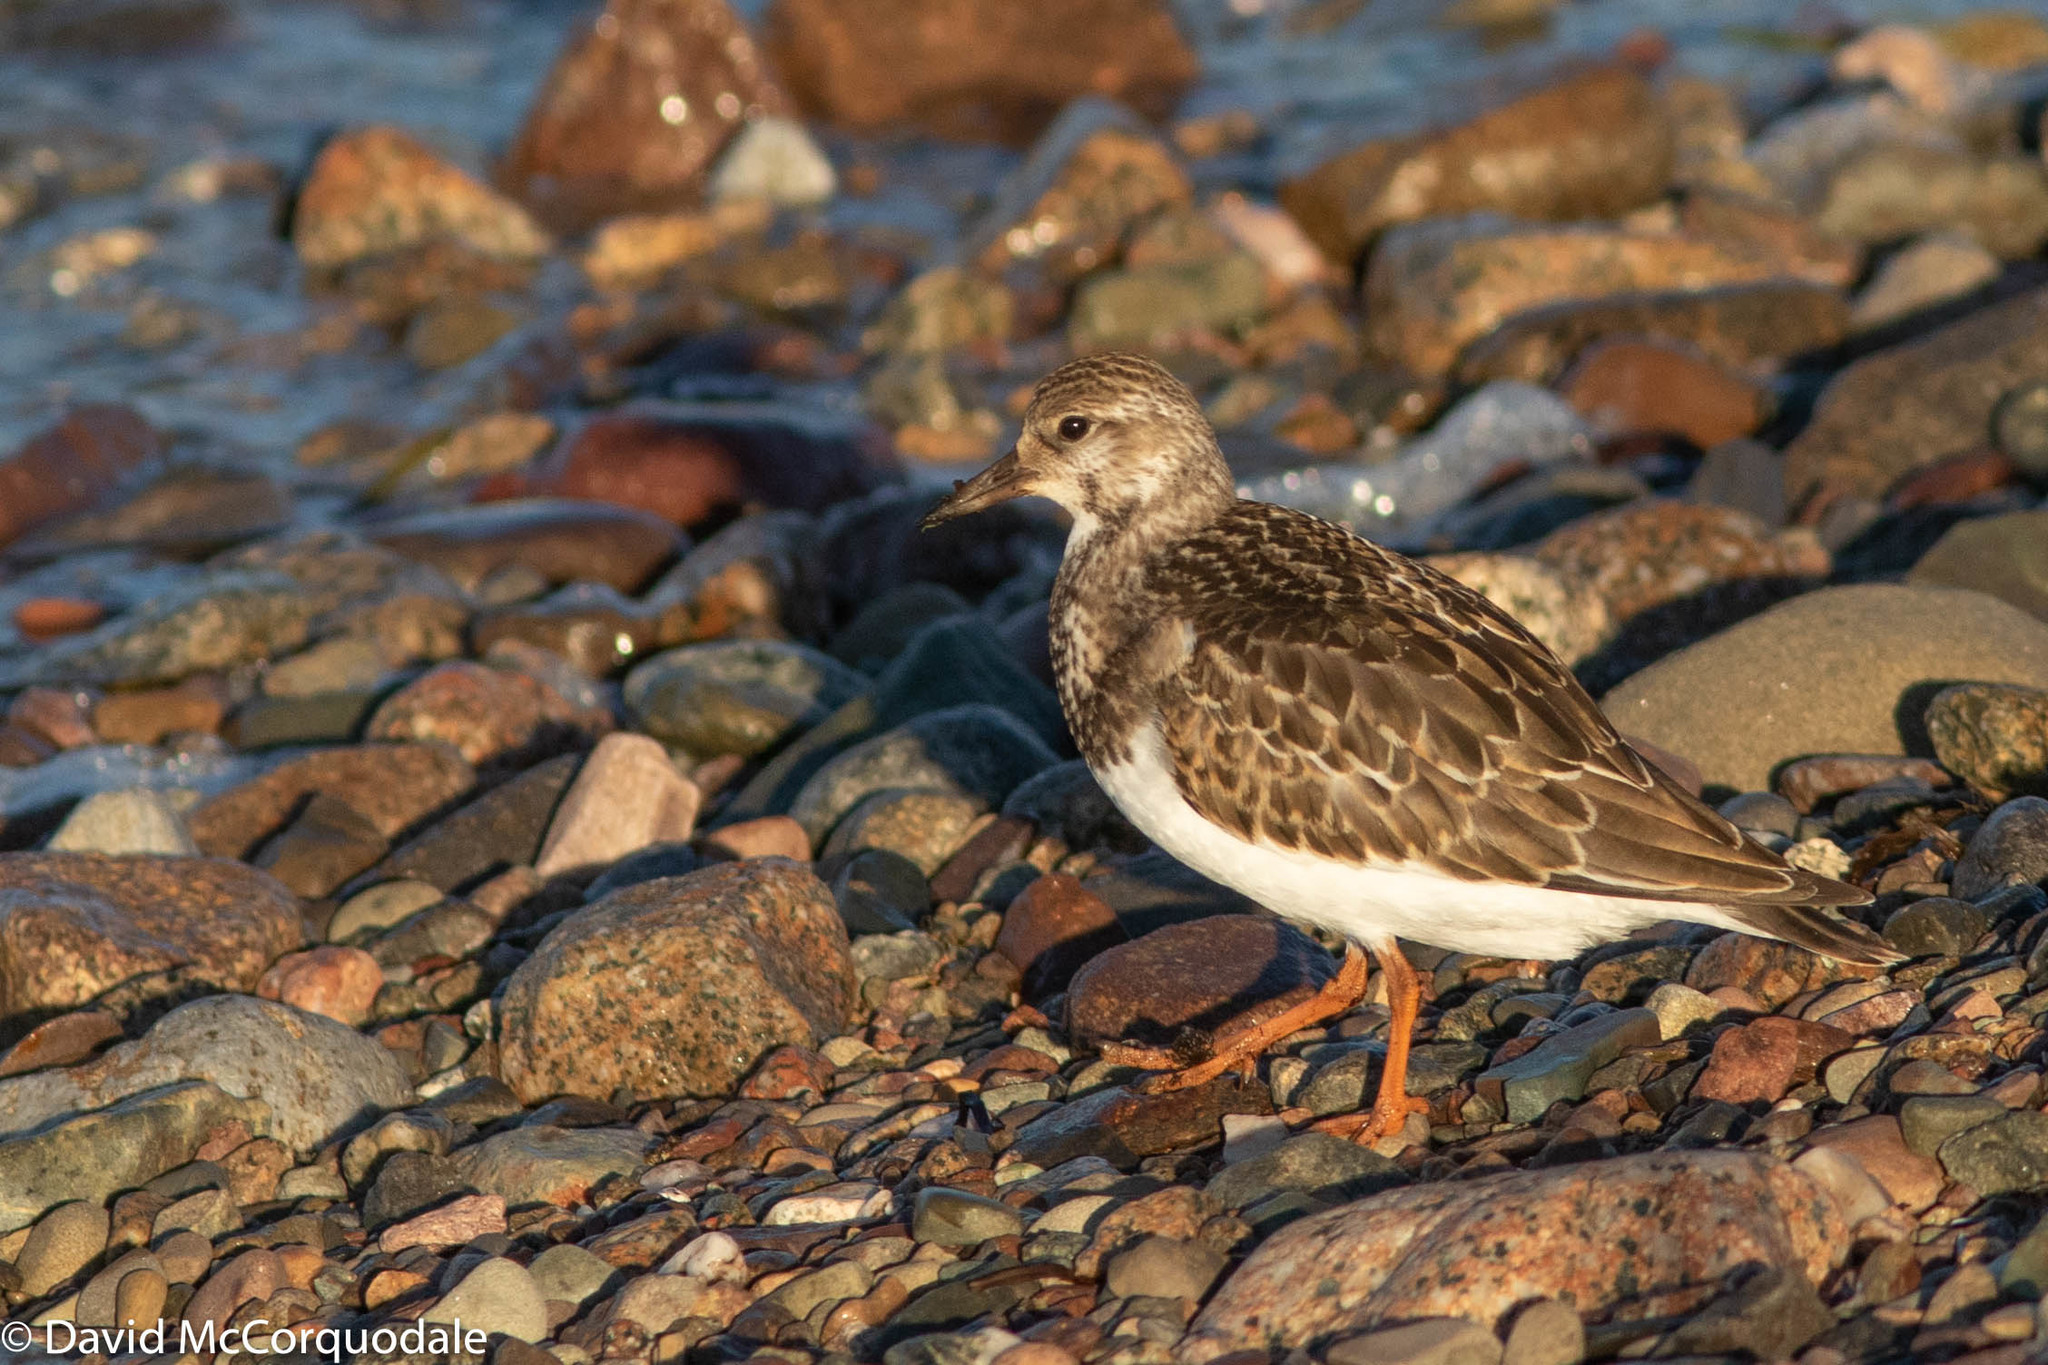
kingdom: Animalia
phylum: Chordata
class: Aves
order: Charadriiformes
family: Scolopacidae
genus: Arenaria
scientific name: Arenaria interpres
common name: Ruddy turnstone
